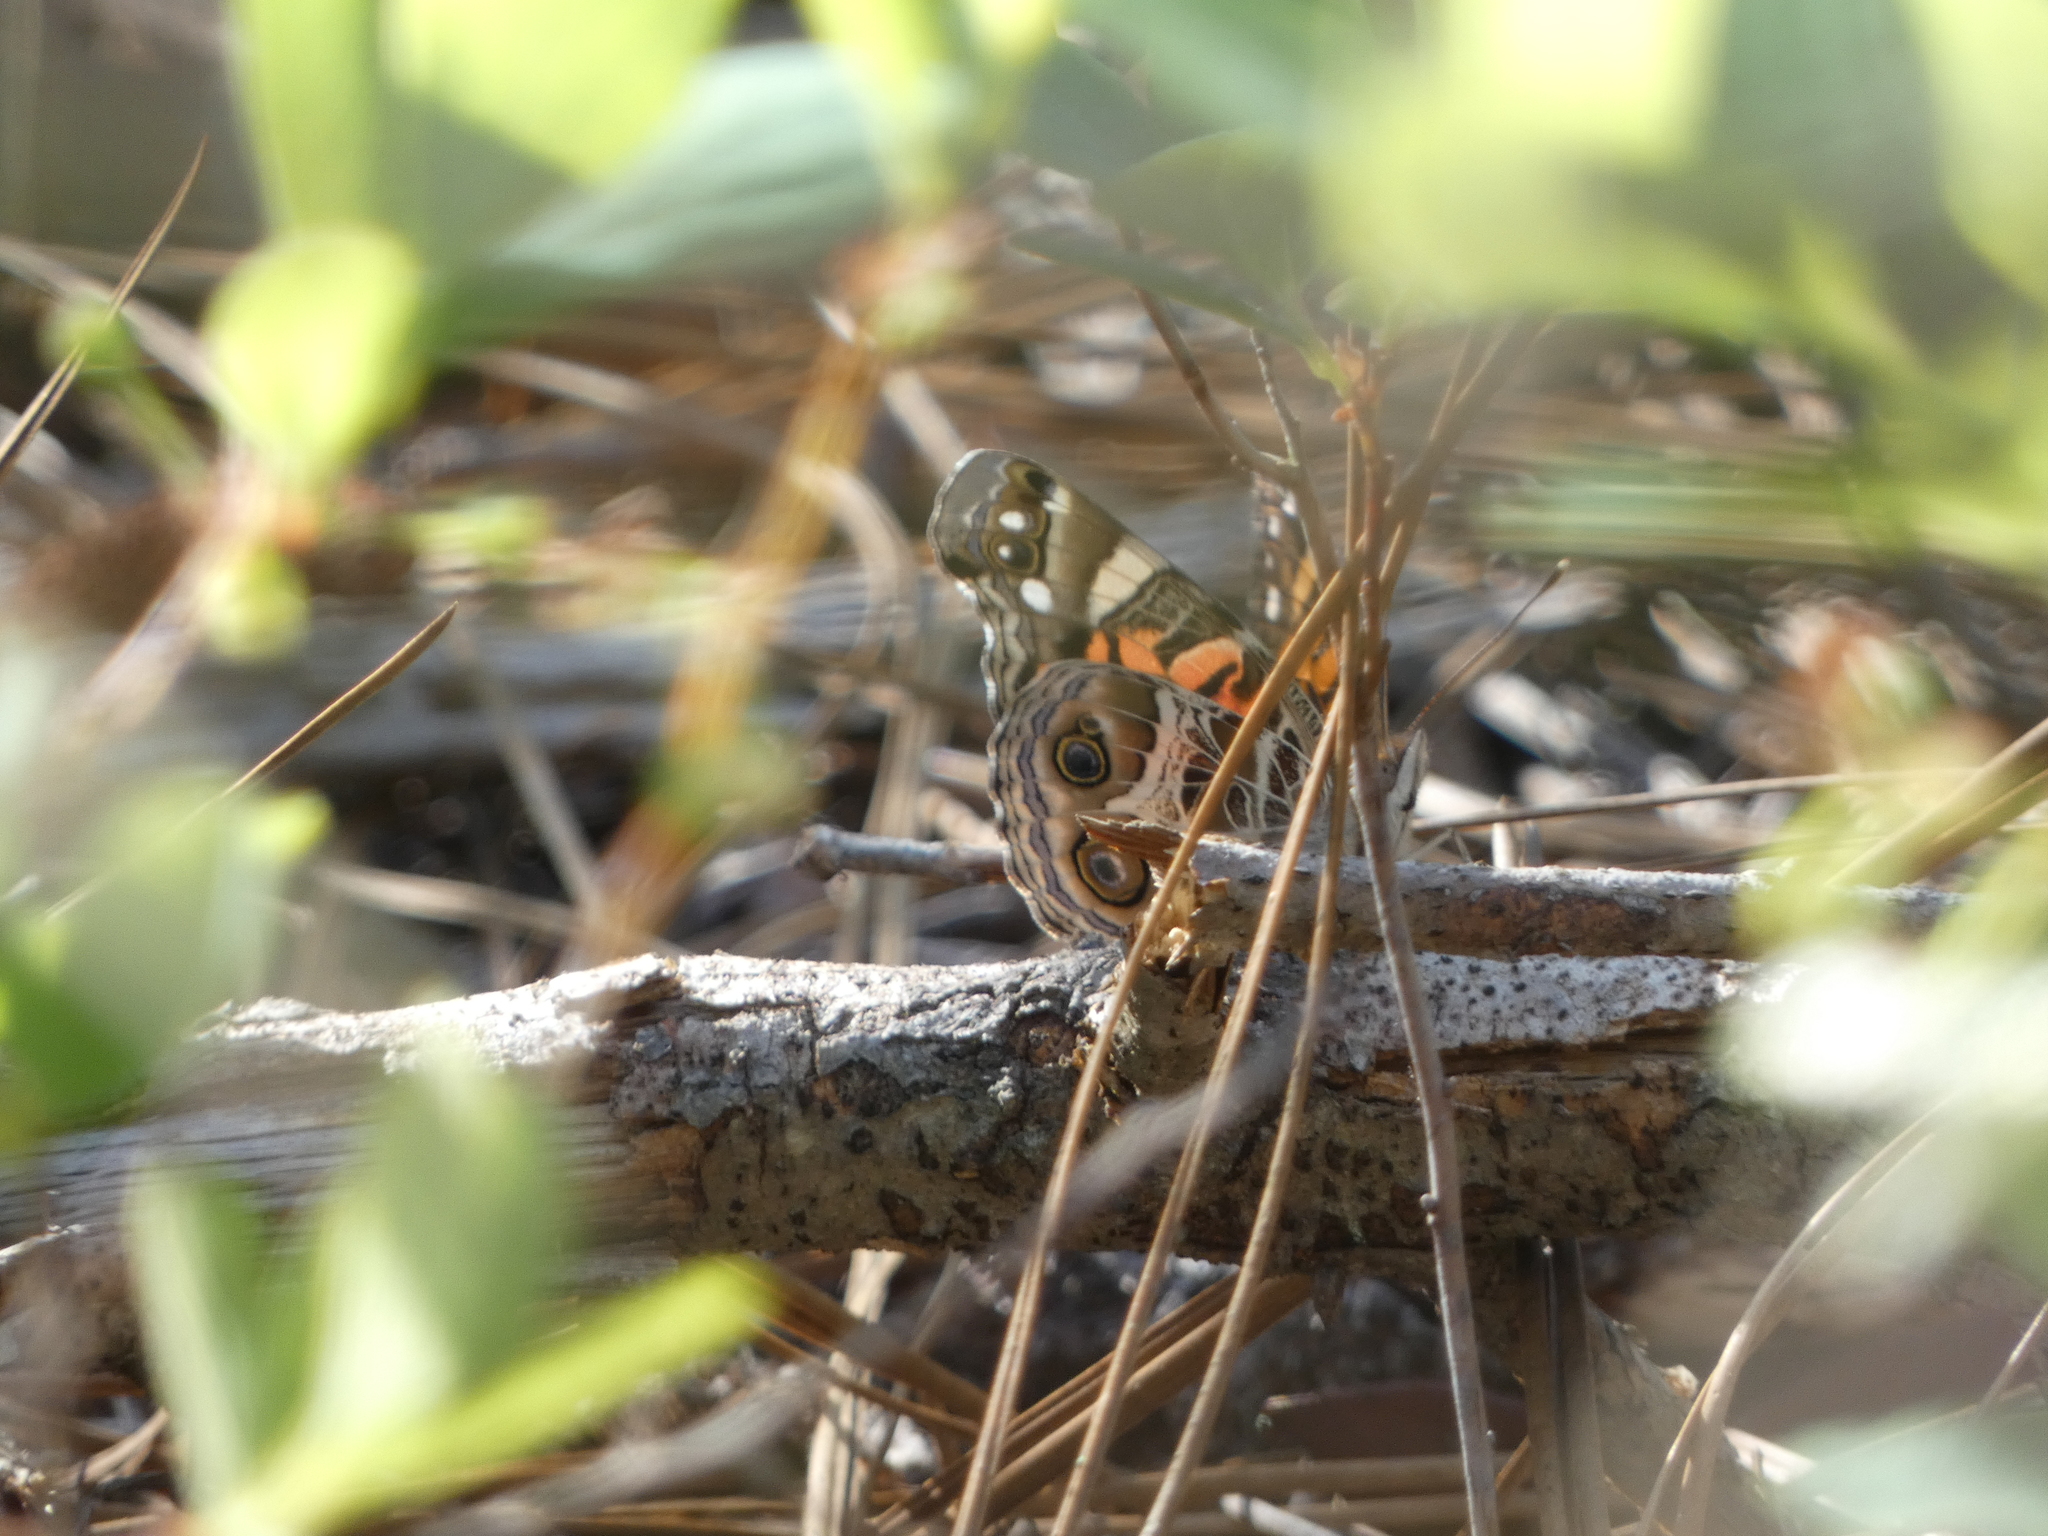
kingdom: Animalia
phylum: Arthropoda
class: Insecta
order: Lepidoptera
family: Nymphalidae
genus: Vanessa
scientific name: Vanessa virginiensis
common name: American lady
